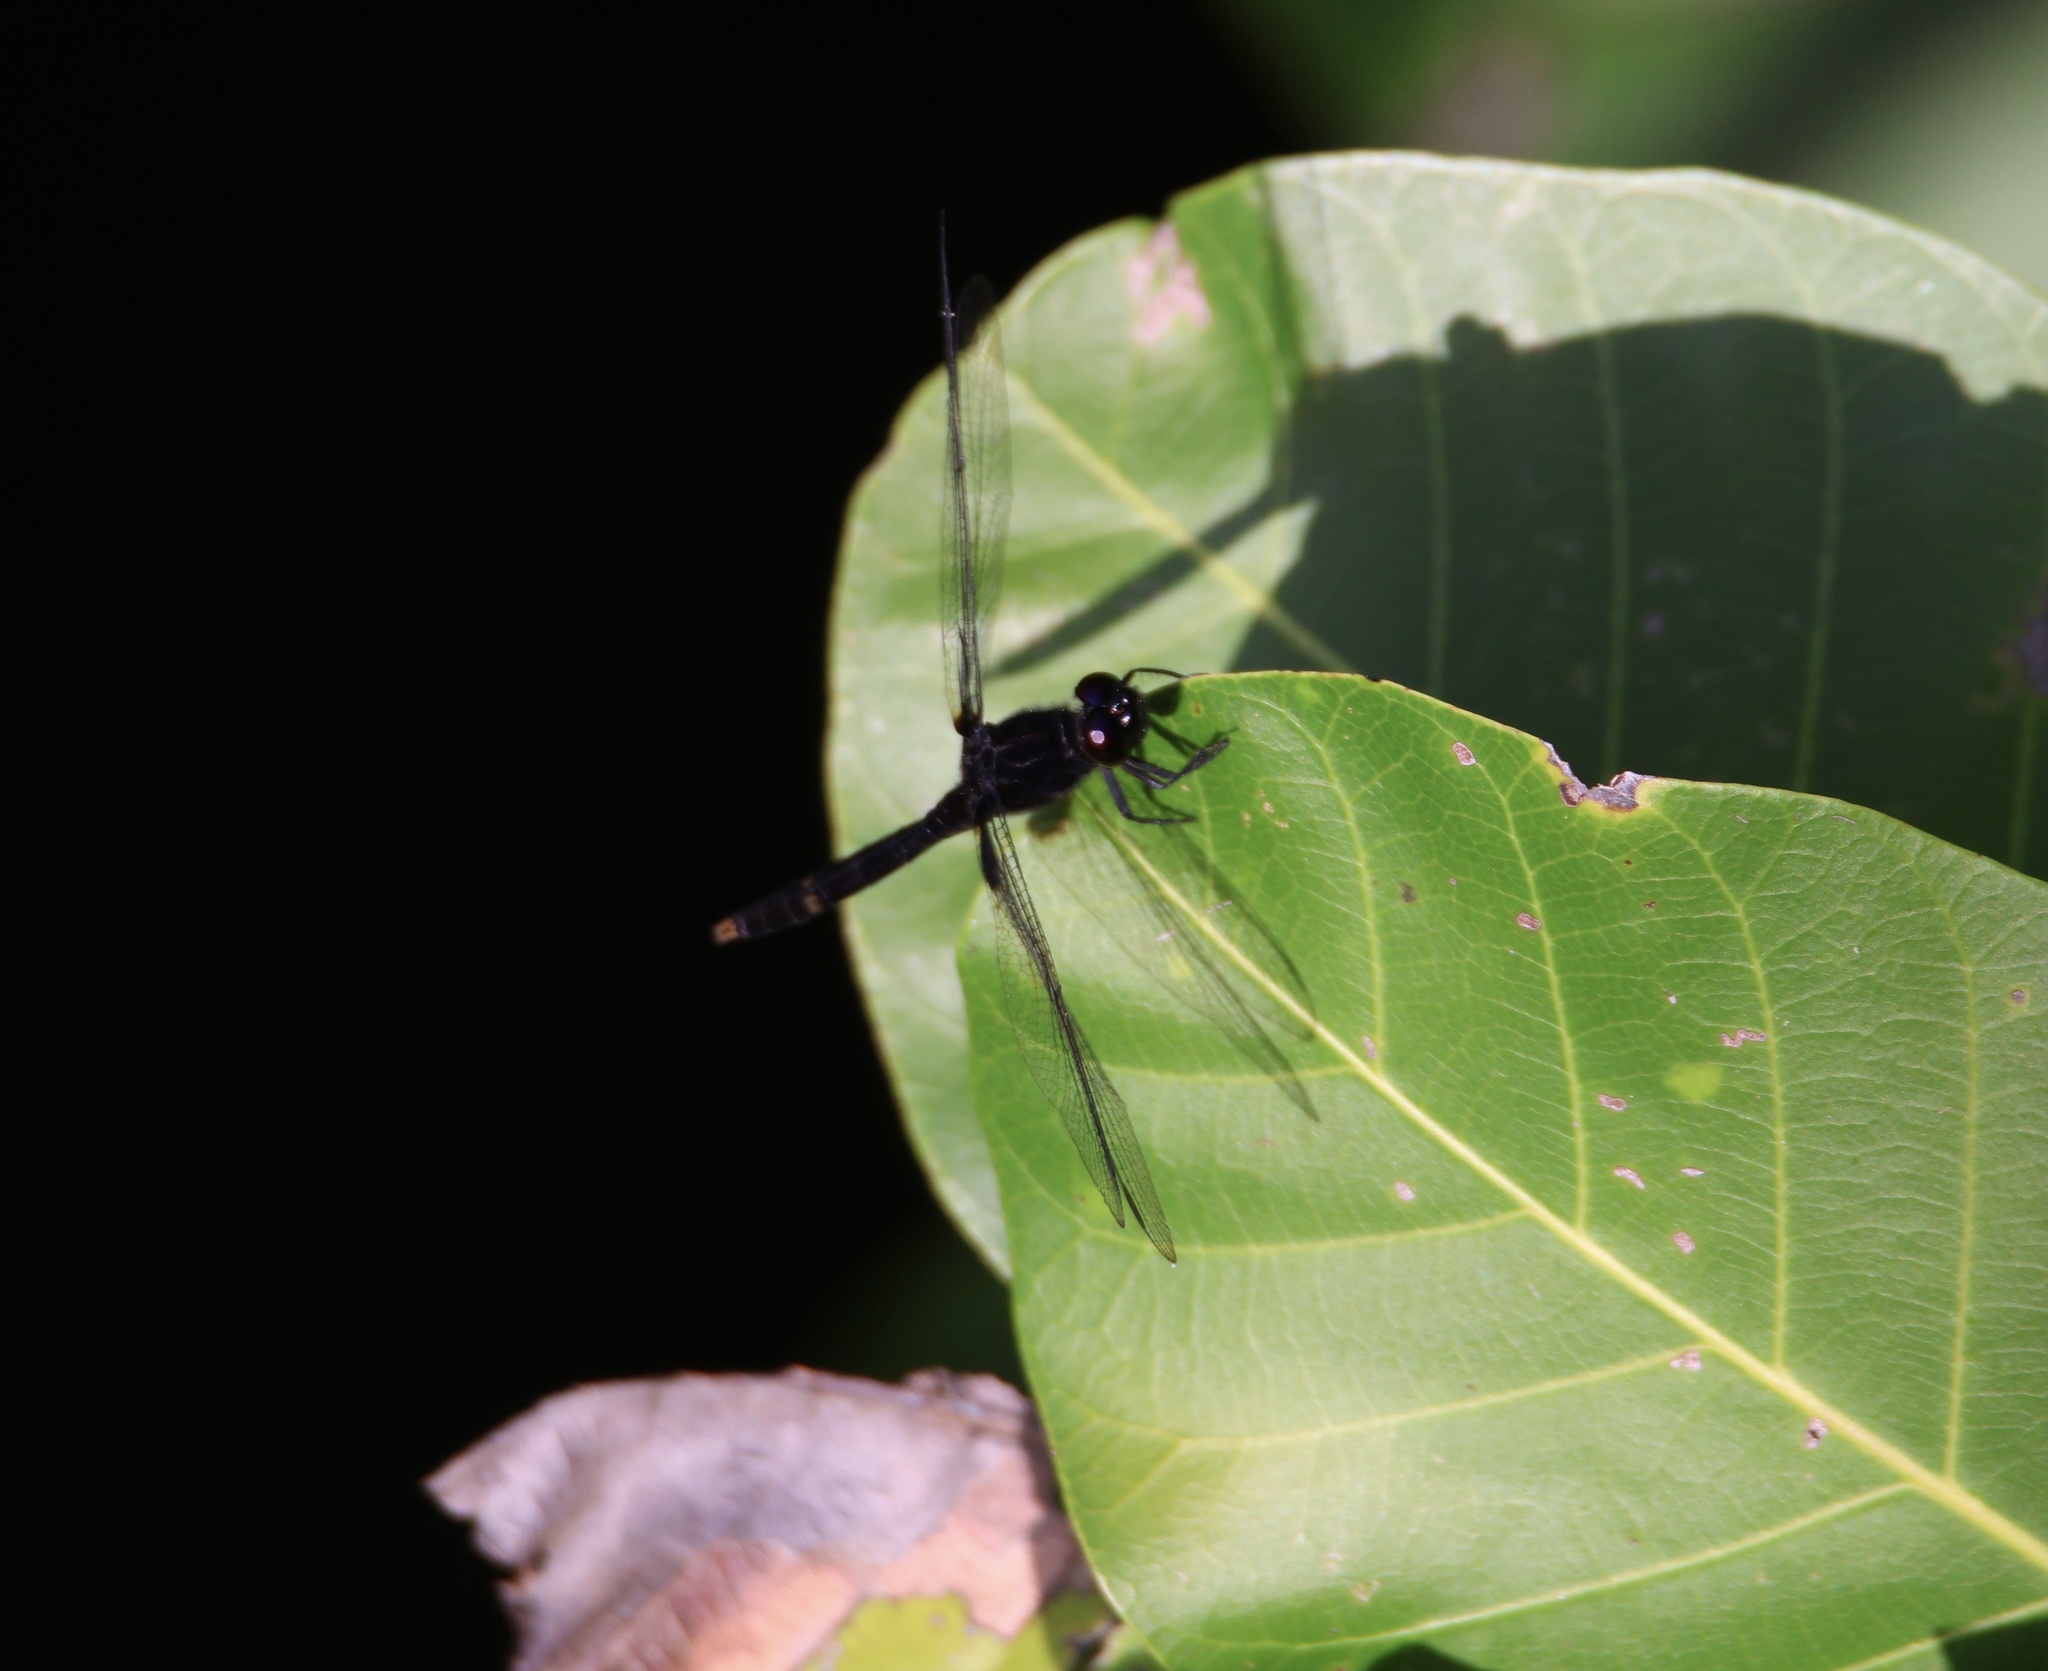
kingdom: Animalia
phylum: Arthropoda
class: Insecta
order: Odonata
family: Libellulidae
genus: Erythemis
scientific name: Erythemis attala
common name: Black pondhawk
